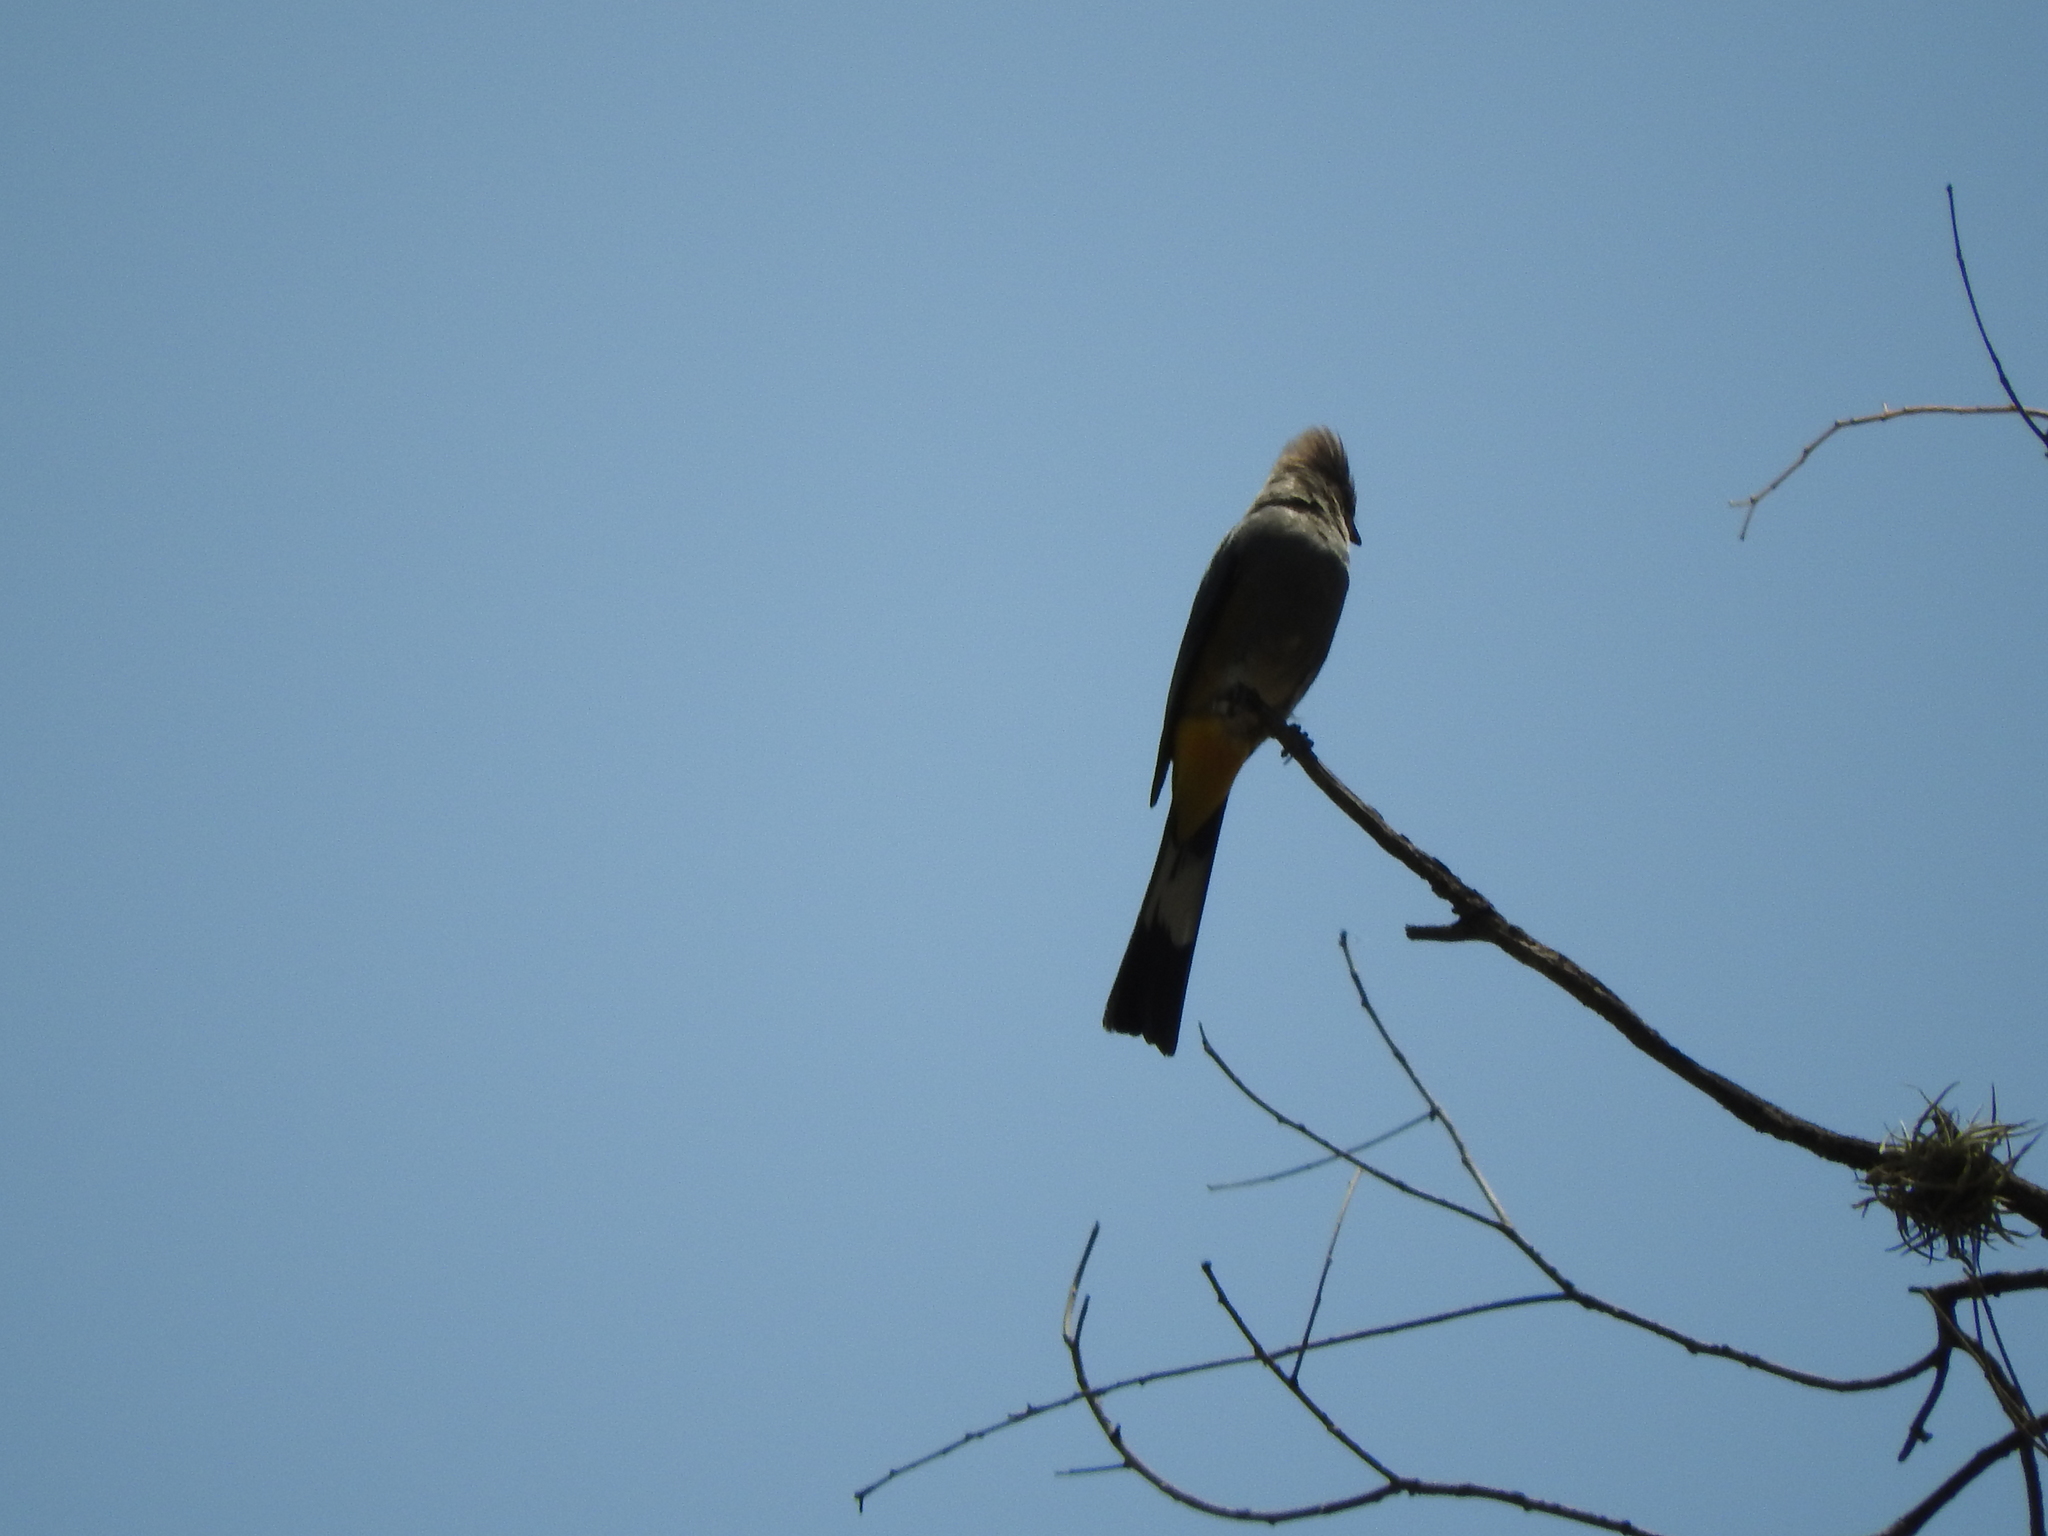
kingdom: Animalia
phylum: Chordata
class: Aves
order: Passeriformes
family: Ptilogonatidae
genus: Ptilogonys
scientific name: Ptilogonys cinereus
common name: Gray silky-flycatcher
